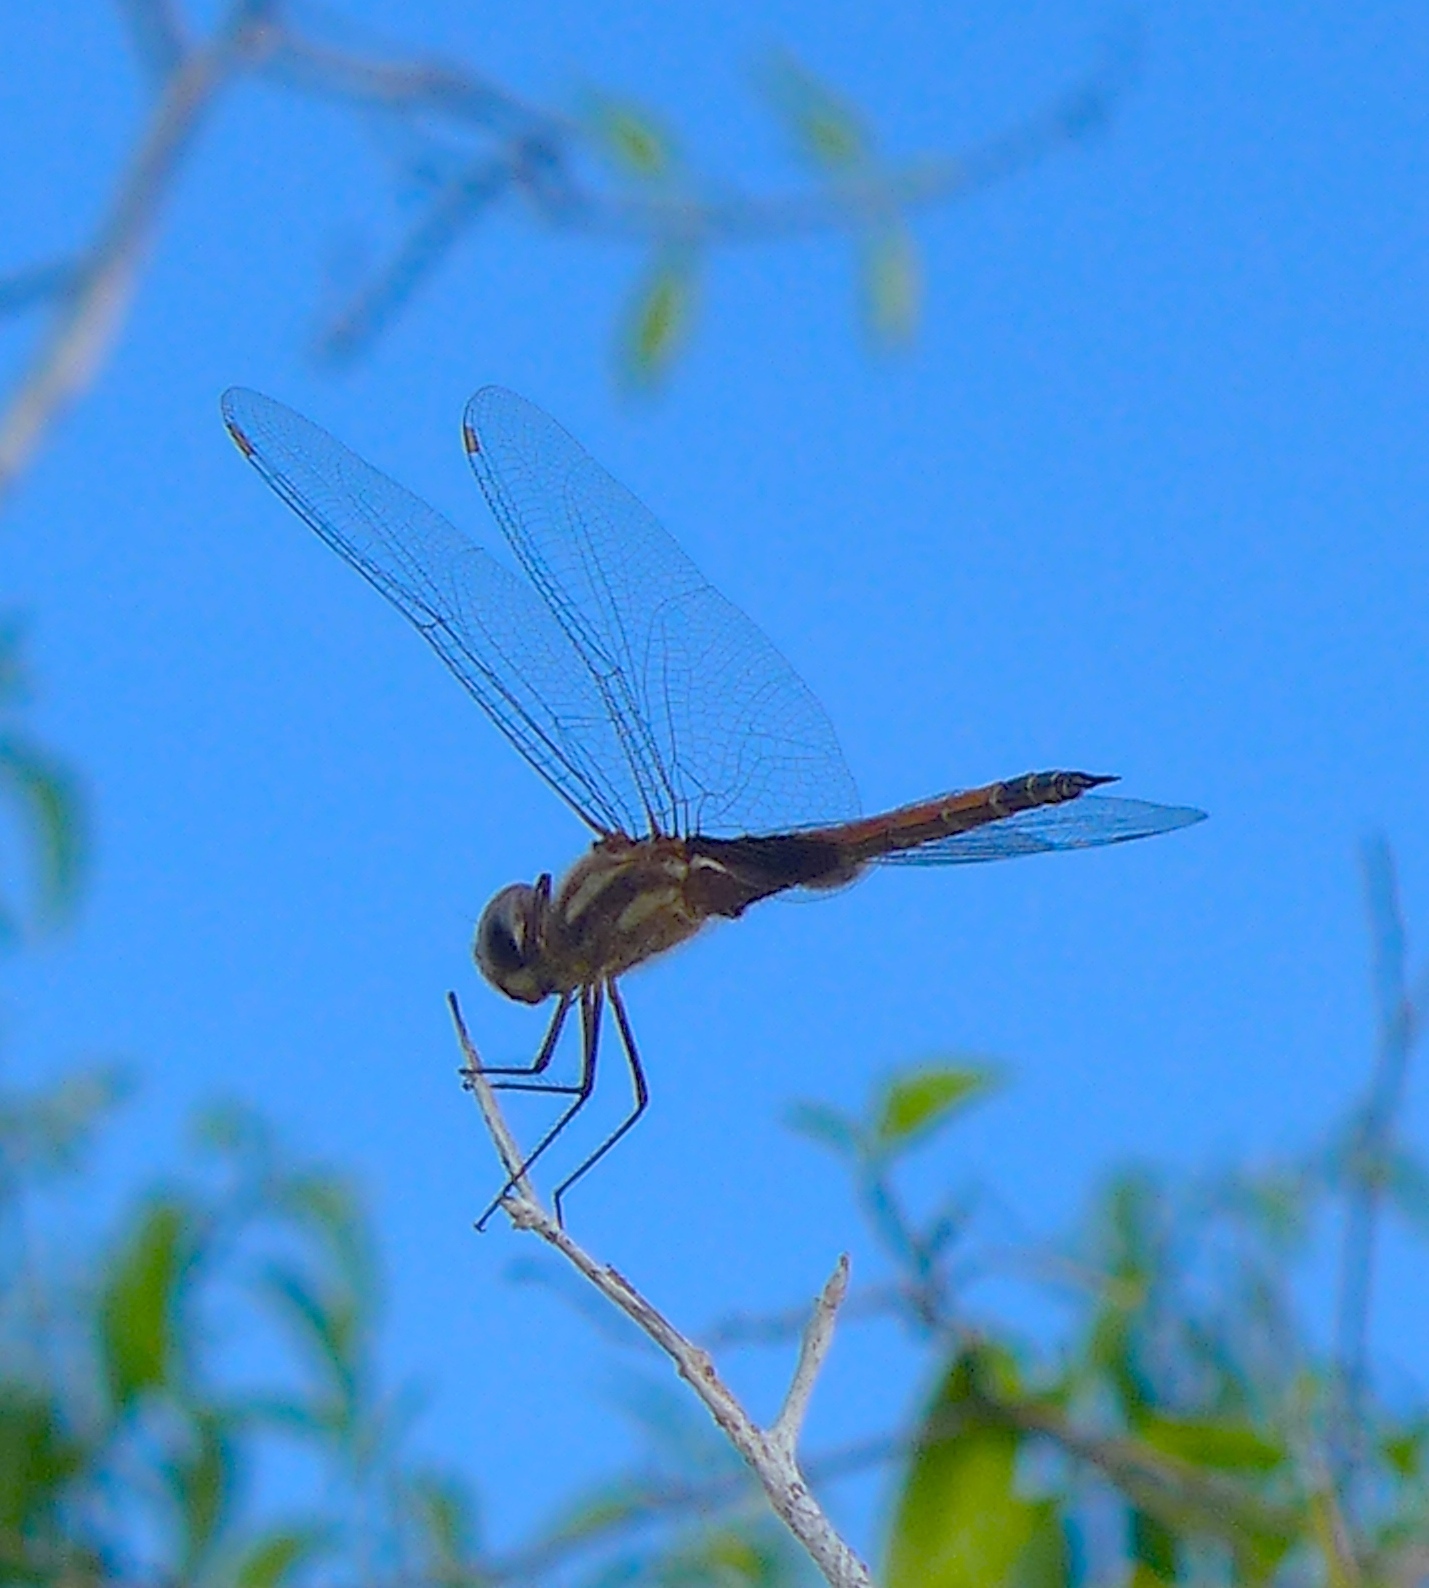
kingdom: Animalia
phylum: Arthropoda
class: Insecta
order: Odonata
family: Libellulidae
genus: Tramea
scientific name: Tramea darwini
